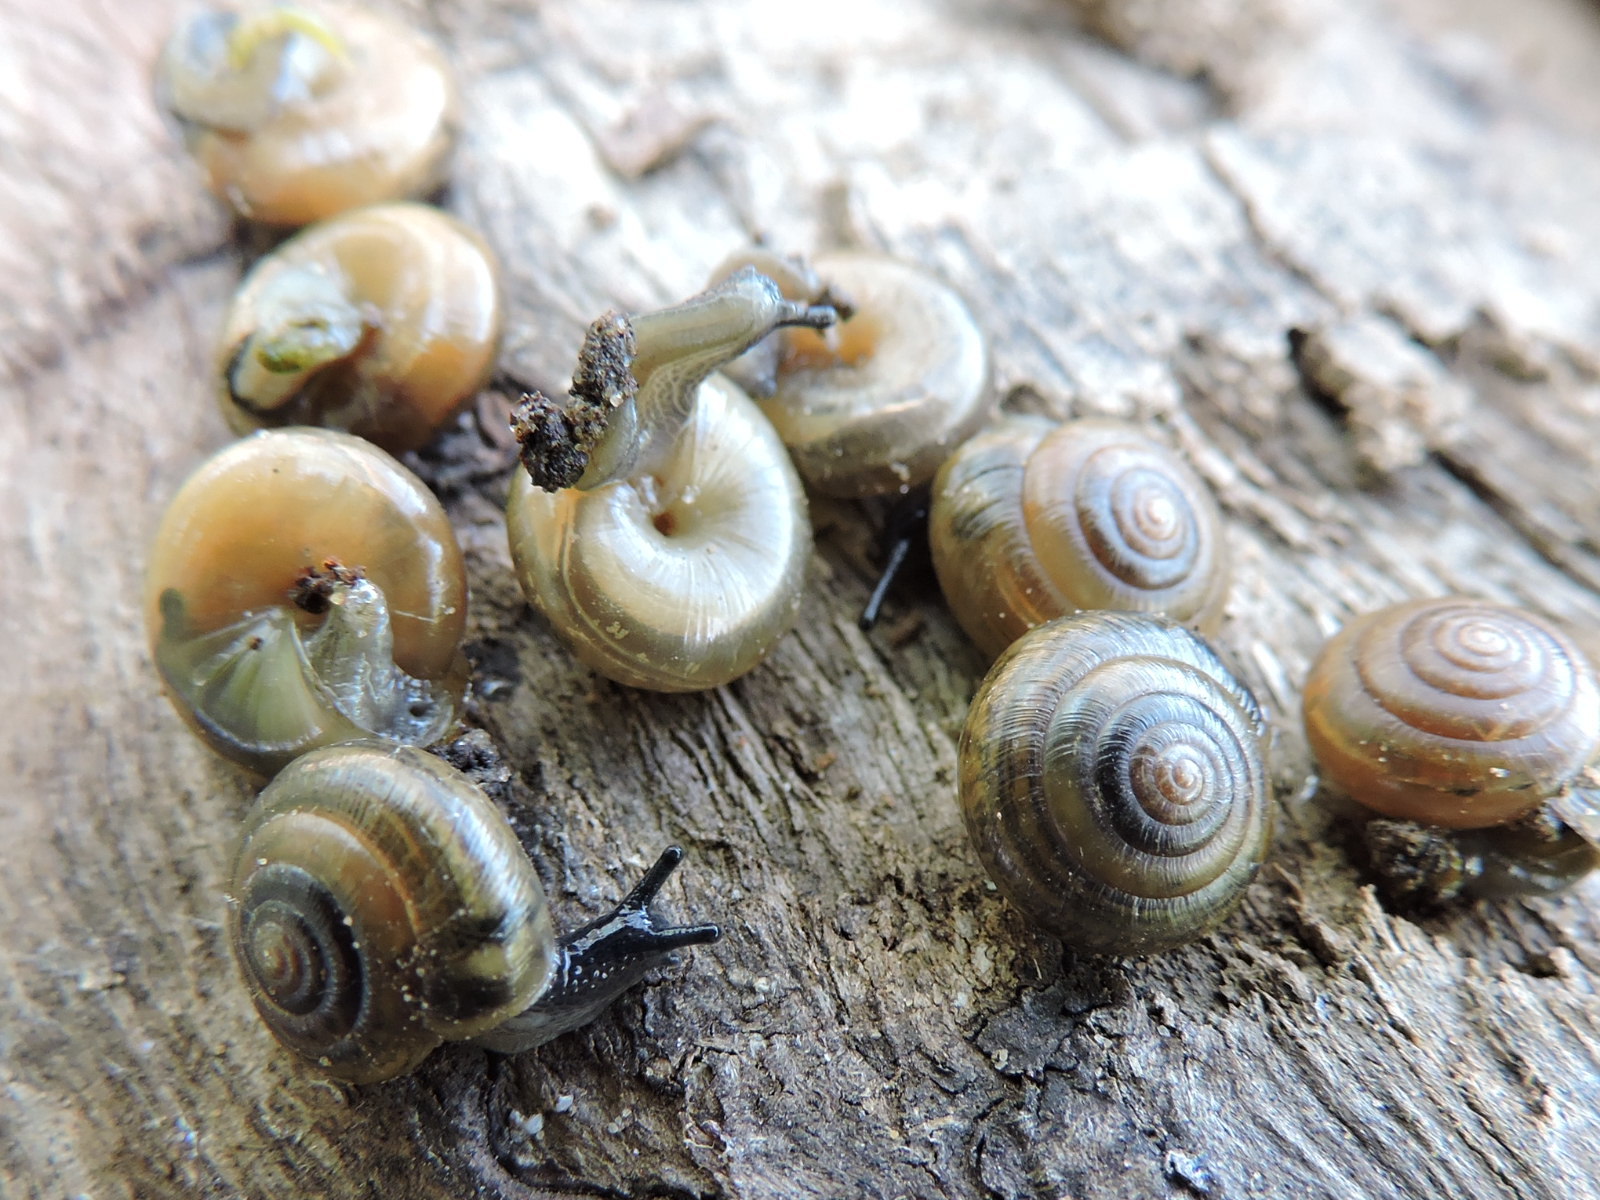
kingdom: Animalia
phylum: Mollusca
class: Gastropoda
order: Stylommatophora
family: Gastrodontidae
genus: Ventridens
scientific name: Ventridens demissus
